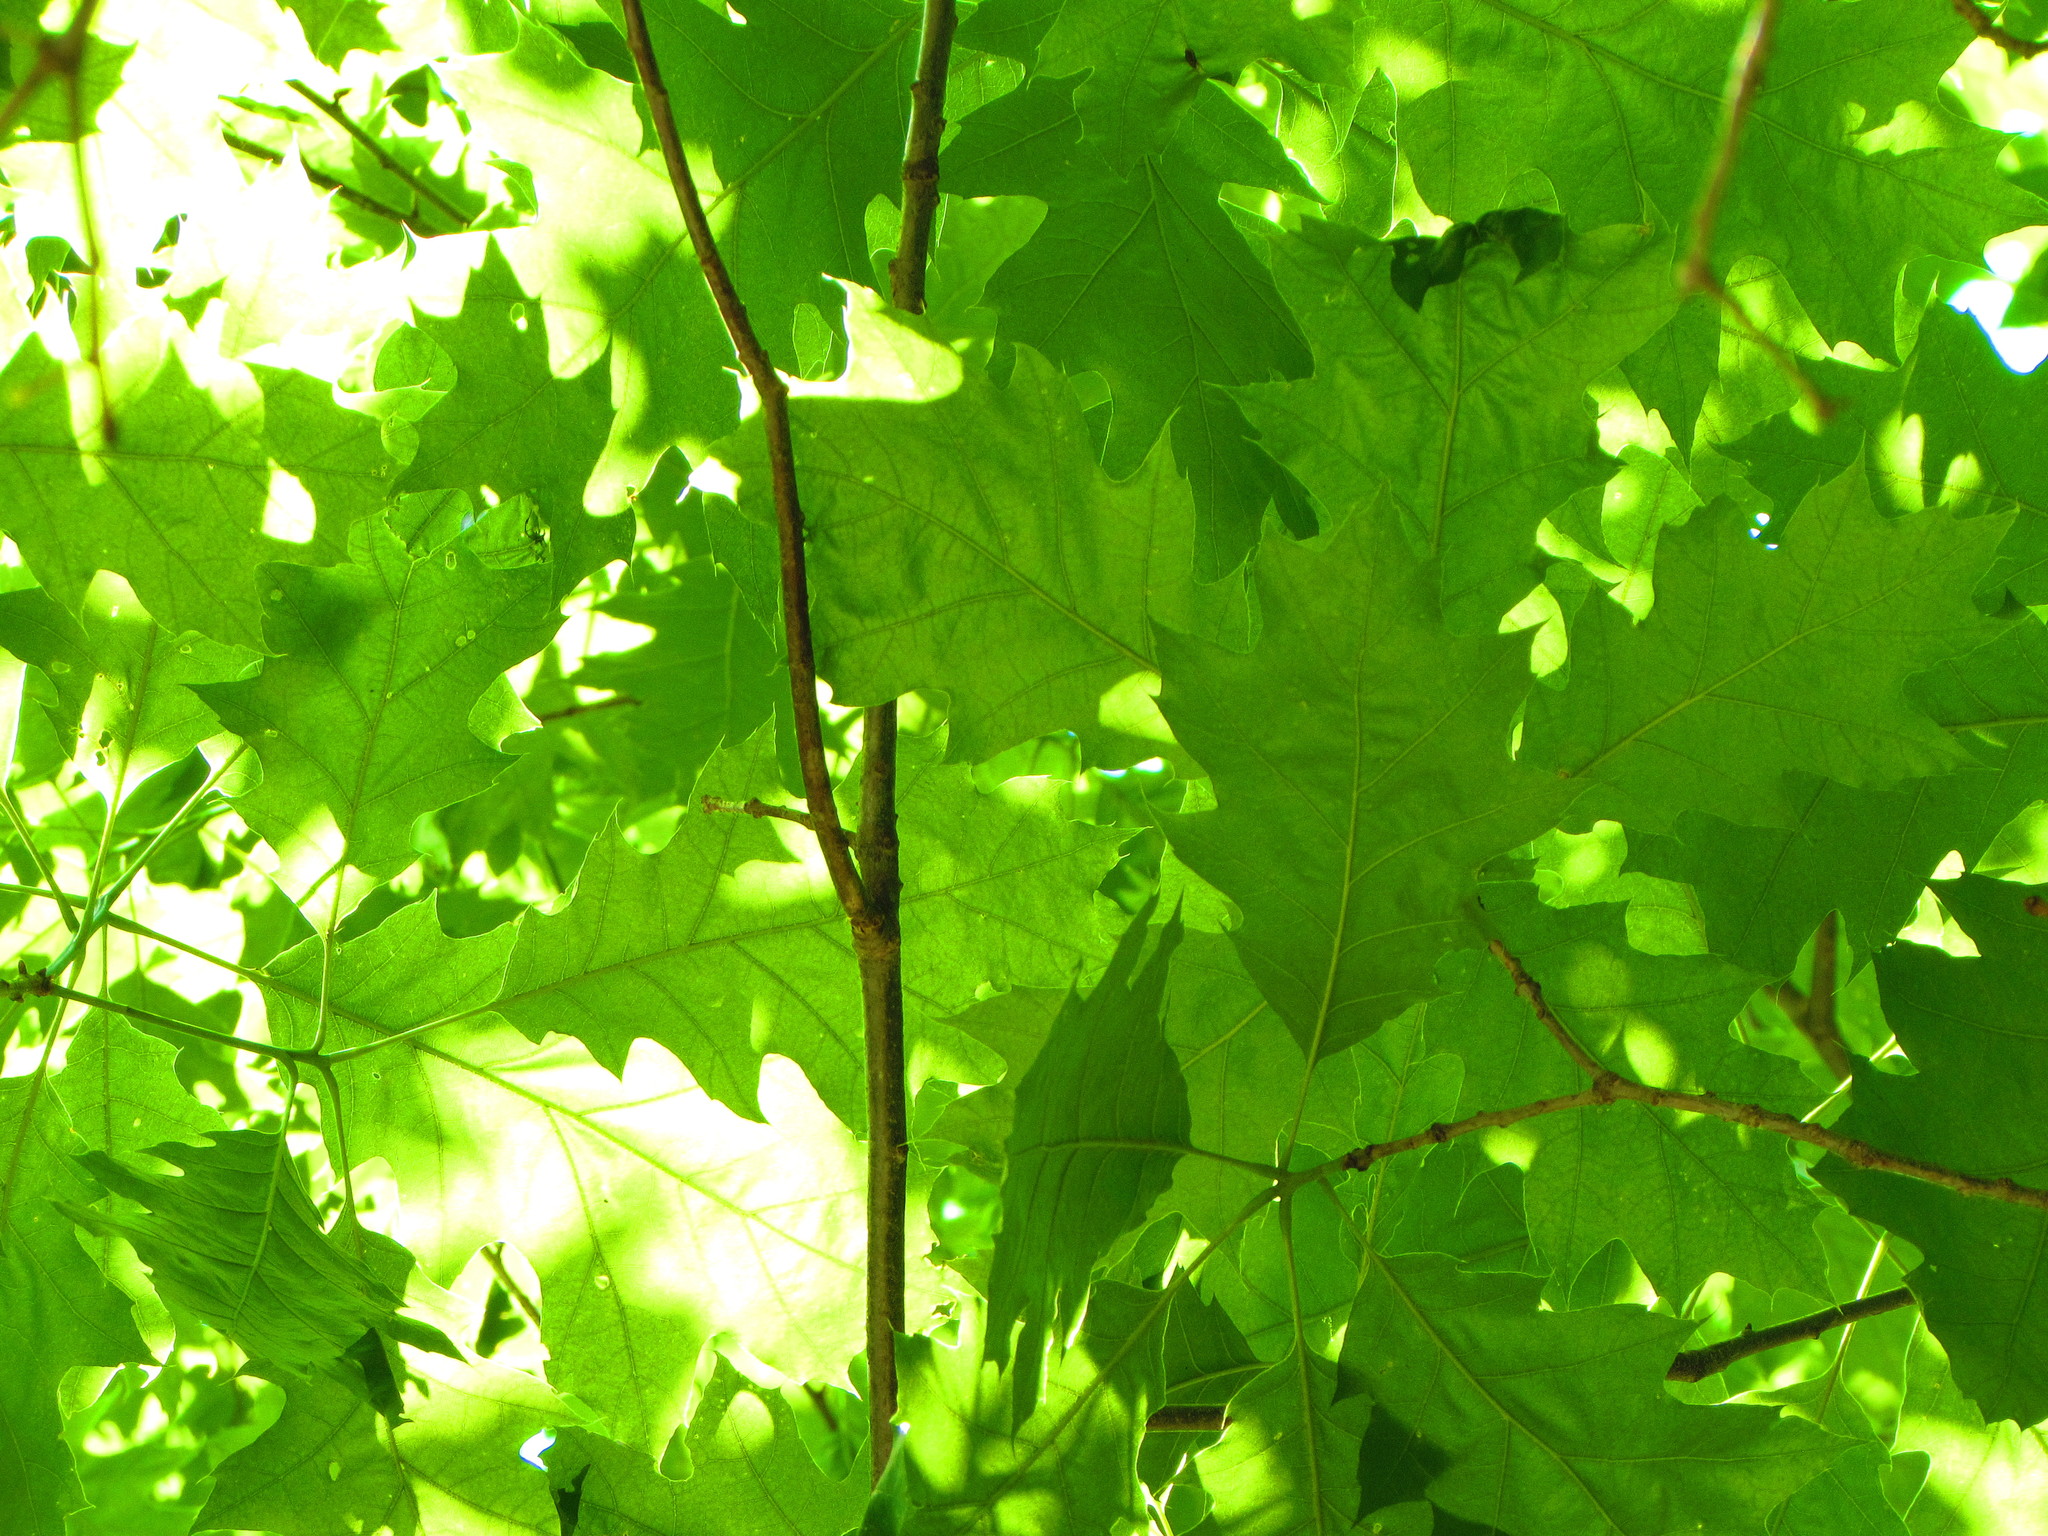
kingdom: Plantae
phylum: Tracheophyta
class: Magnoliopsida
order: Fagales
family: Fagaceae
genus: Quercus
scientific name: Quercus rubra
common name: Red oak
